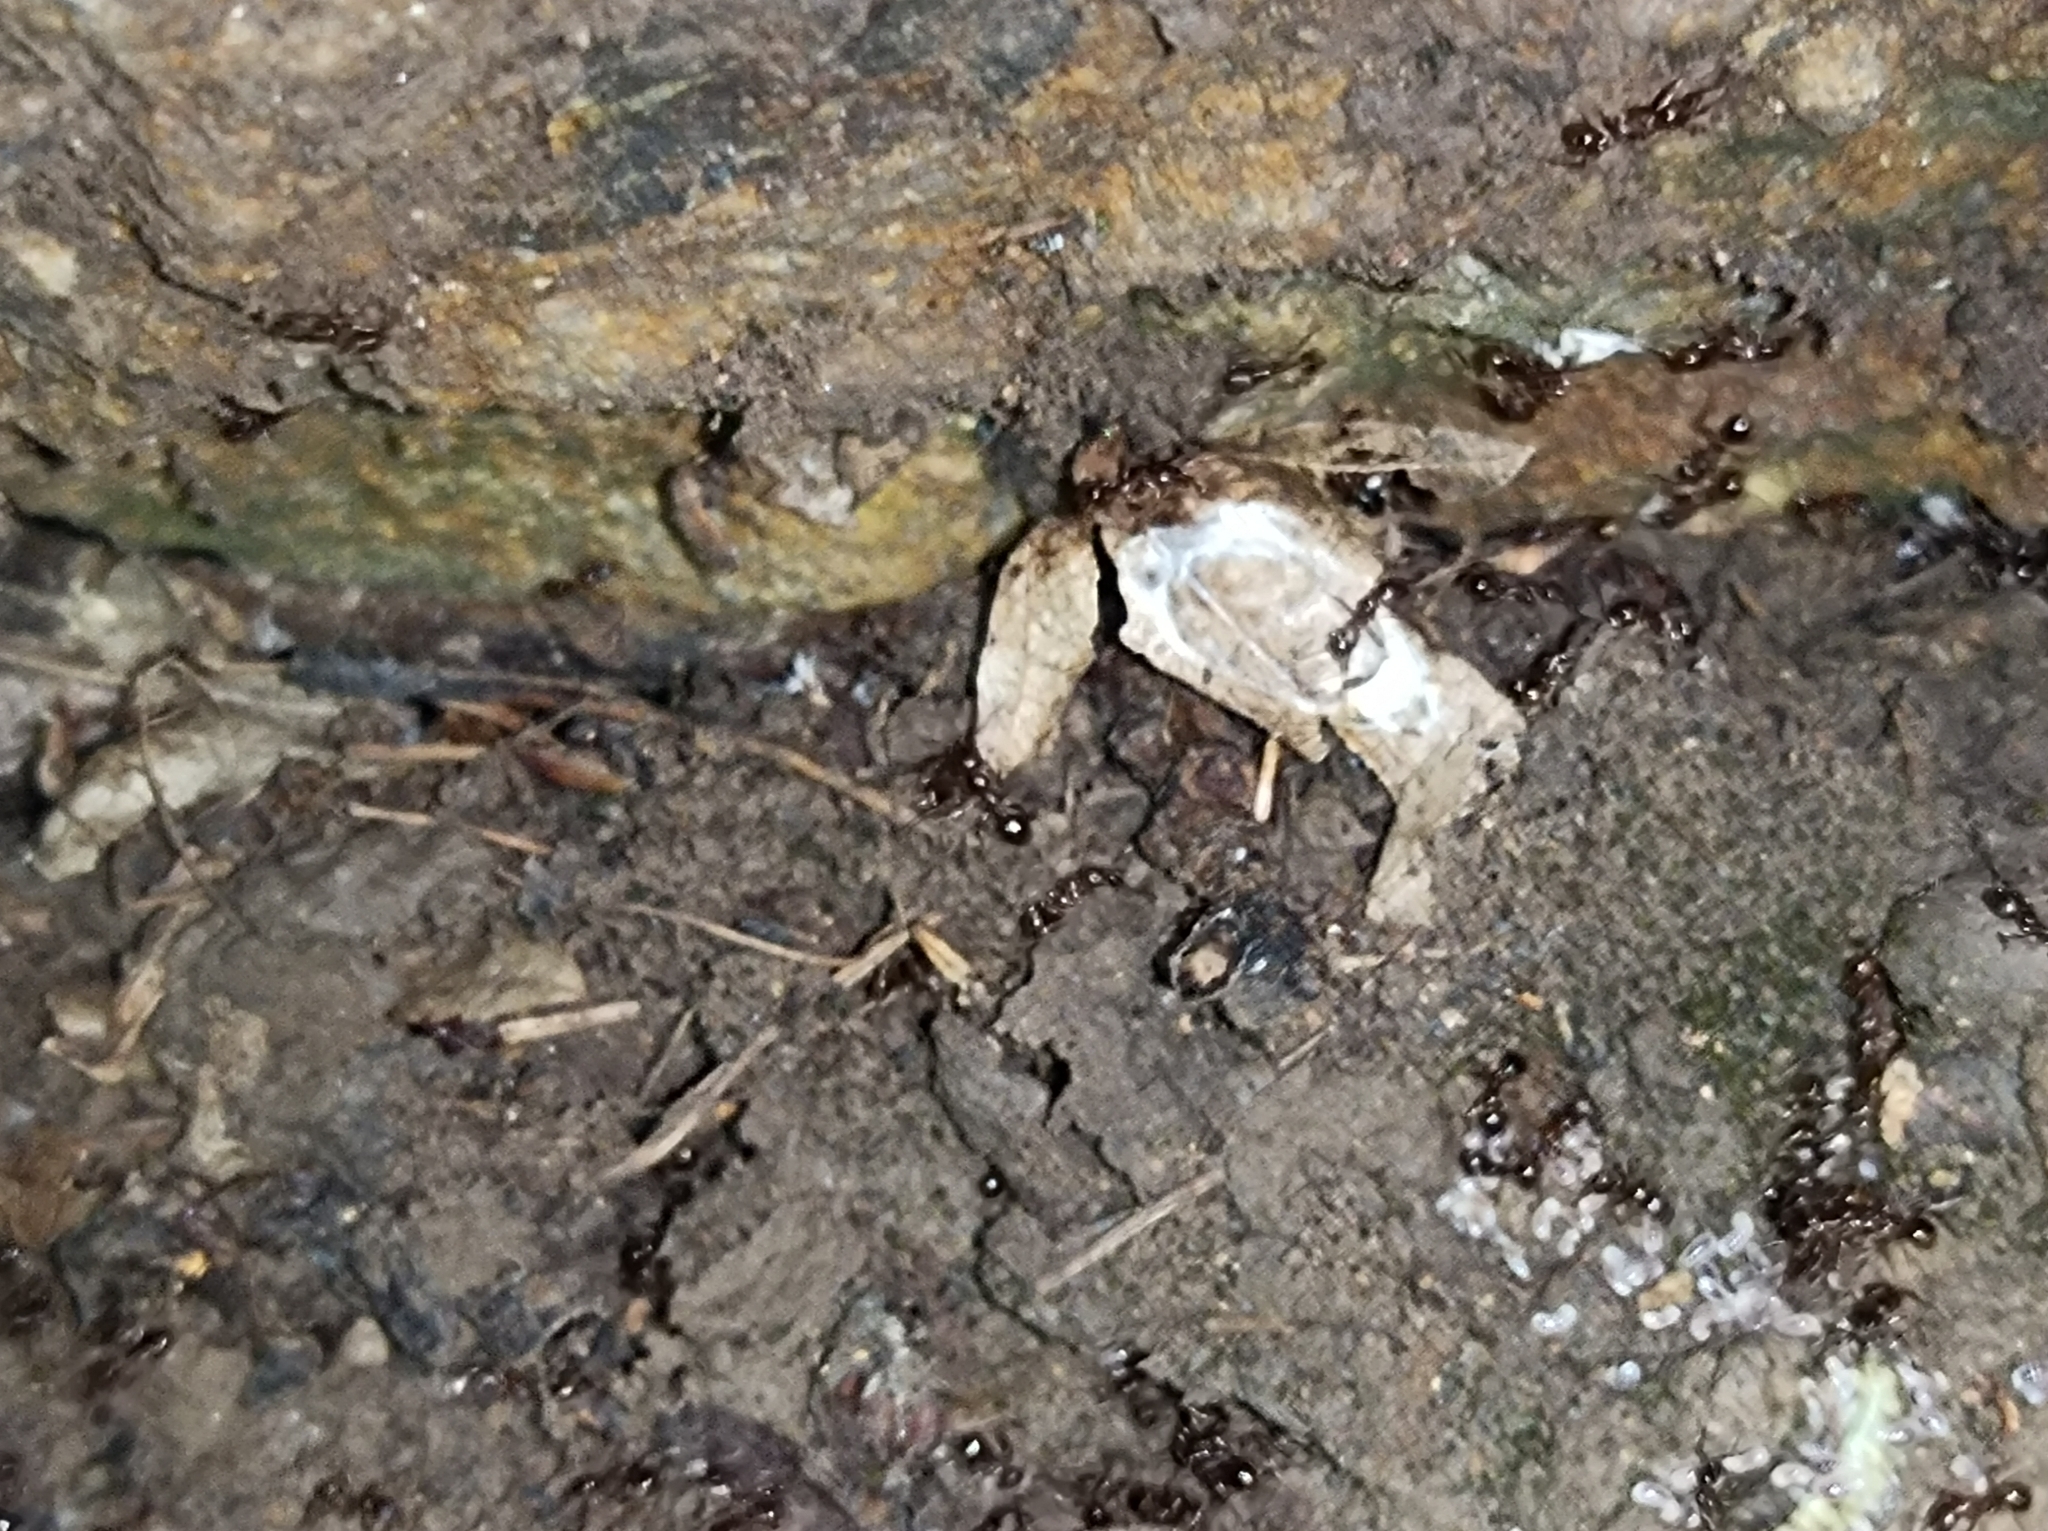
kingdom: Animalia
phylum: Arthropoda
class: Insecta
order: Hymenoptera
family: Formicidae
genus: Aphaenogaster
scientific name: Aphaenogaster subterranea
